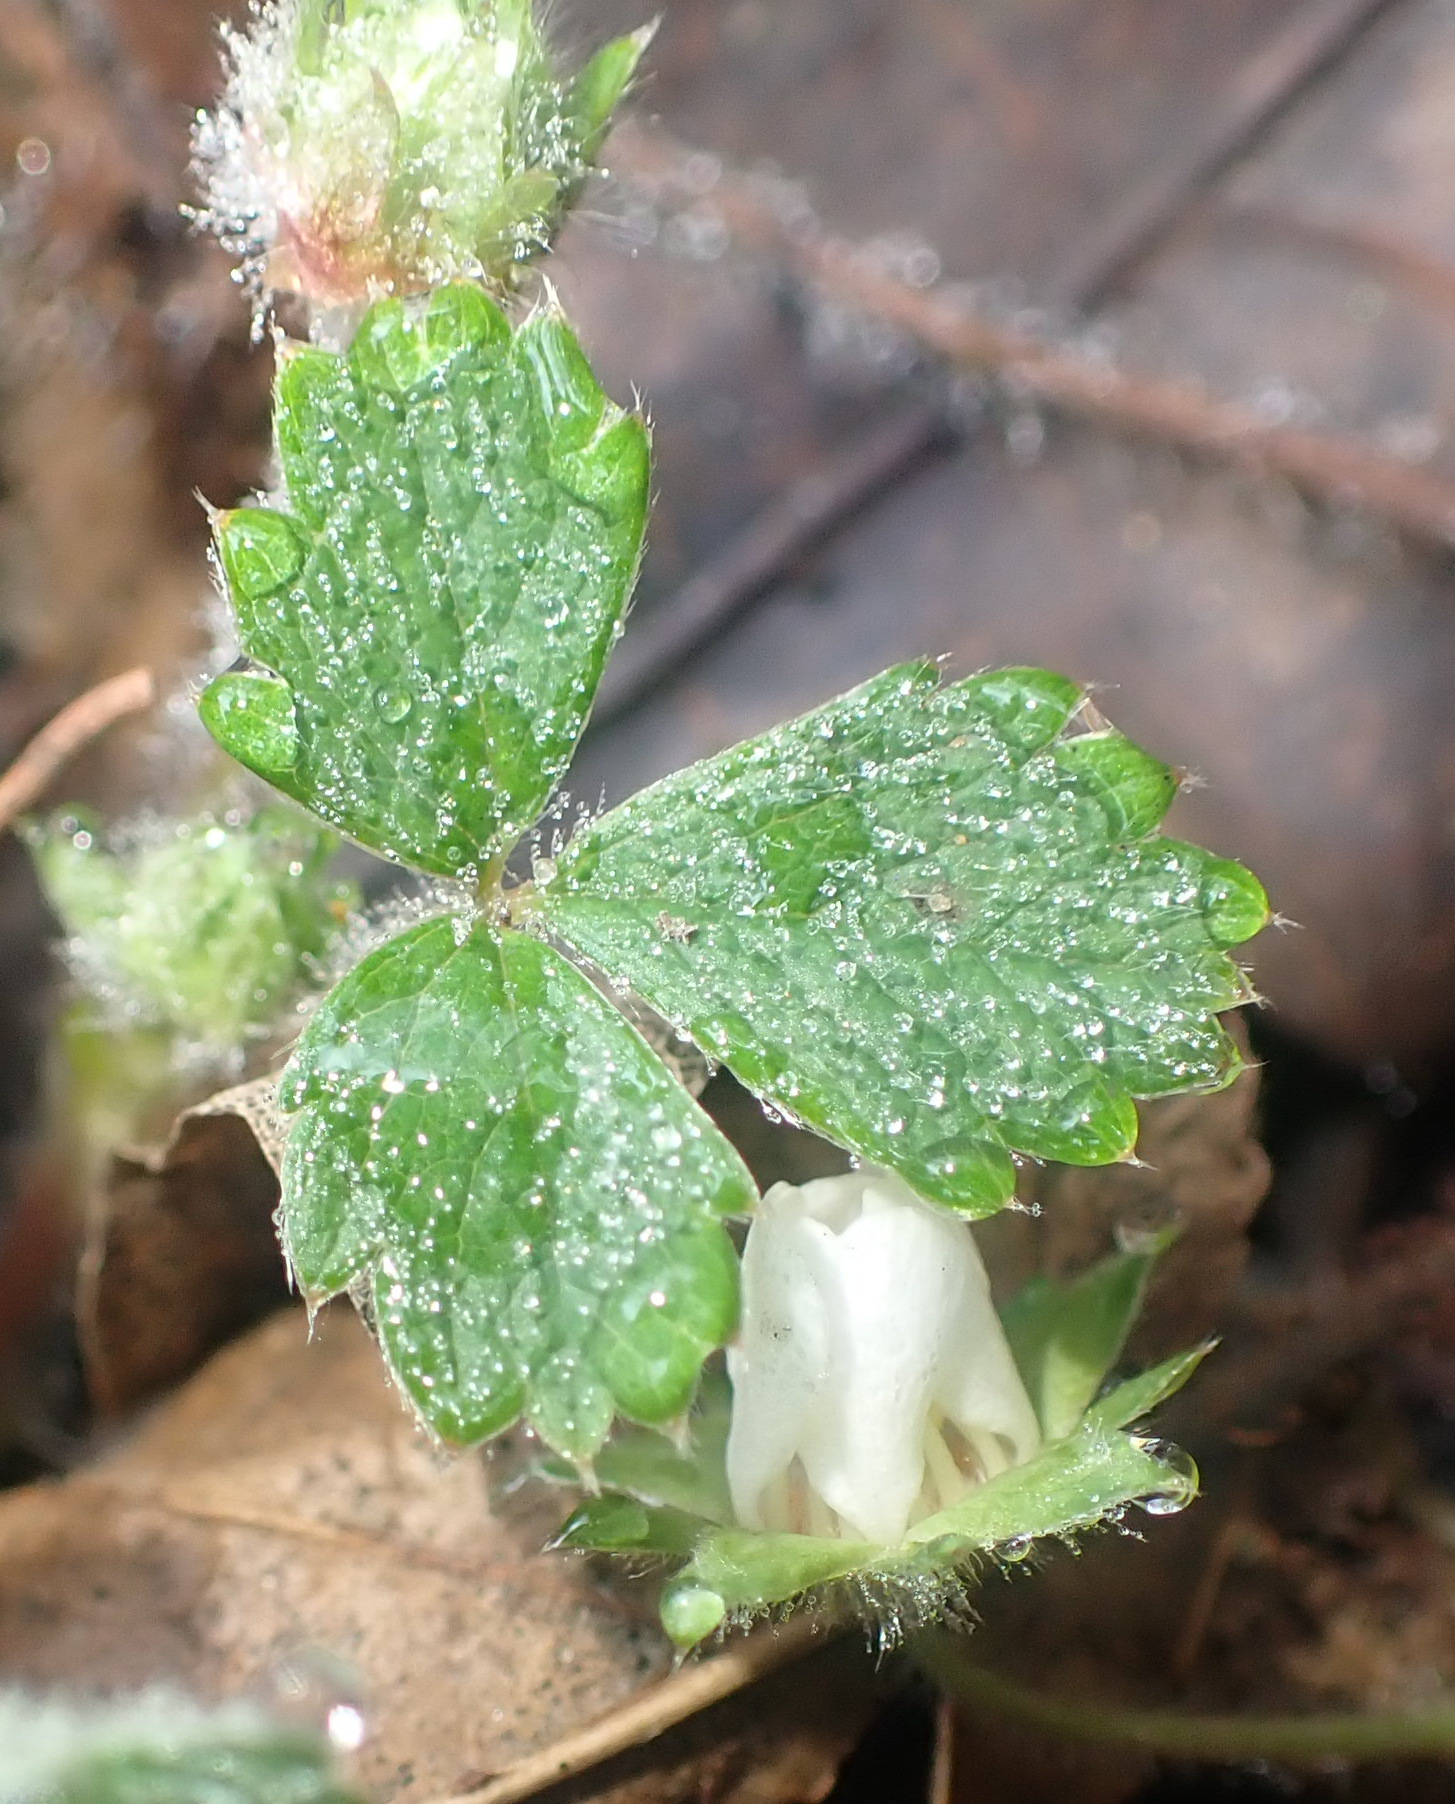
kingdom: Plantae
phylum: Tracheophyta
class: Magnoliopsida
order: Rosales
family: Rosaceae
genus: Potentilla
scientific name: Potentilla sterilis
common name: Barren strawberry
